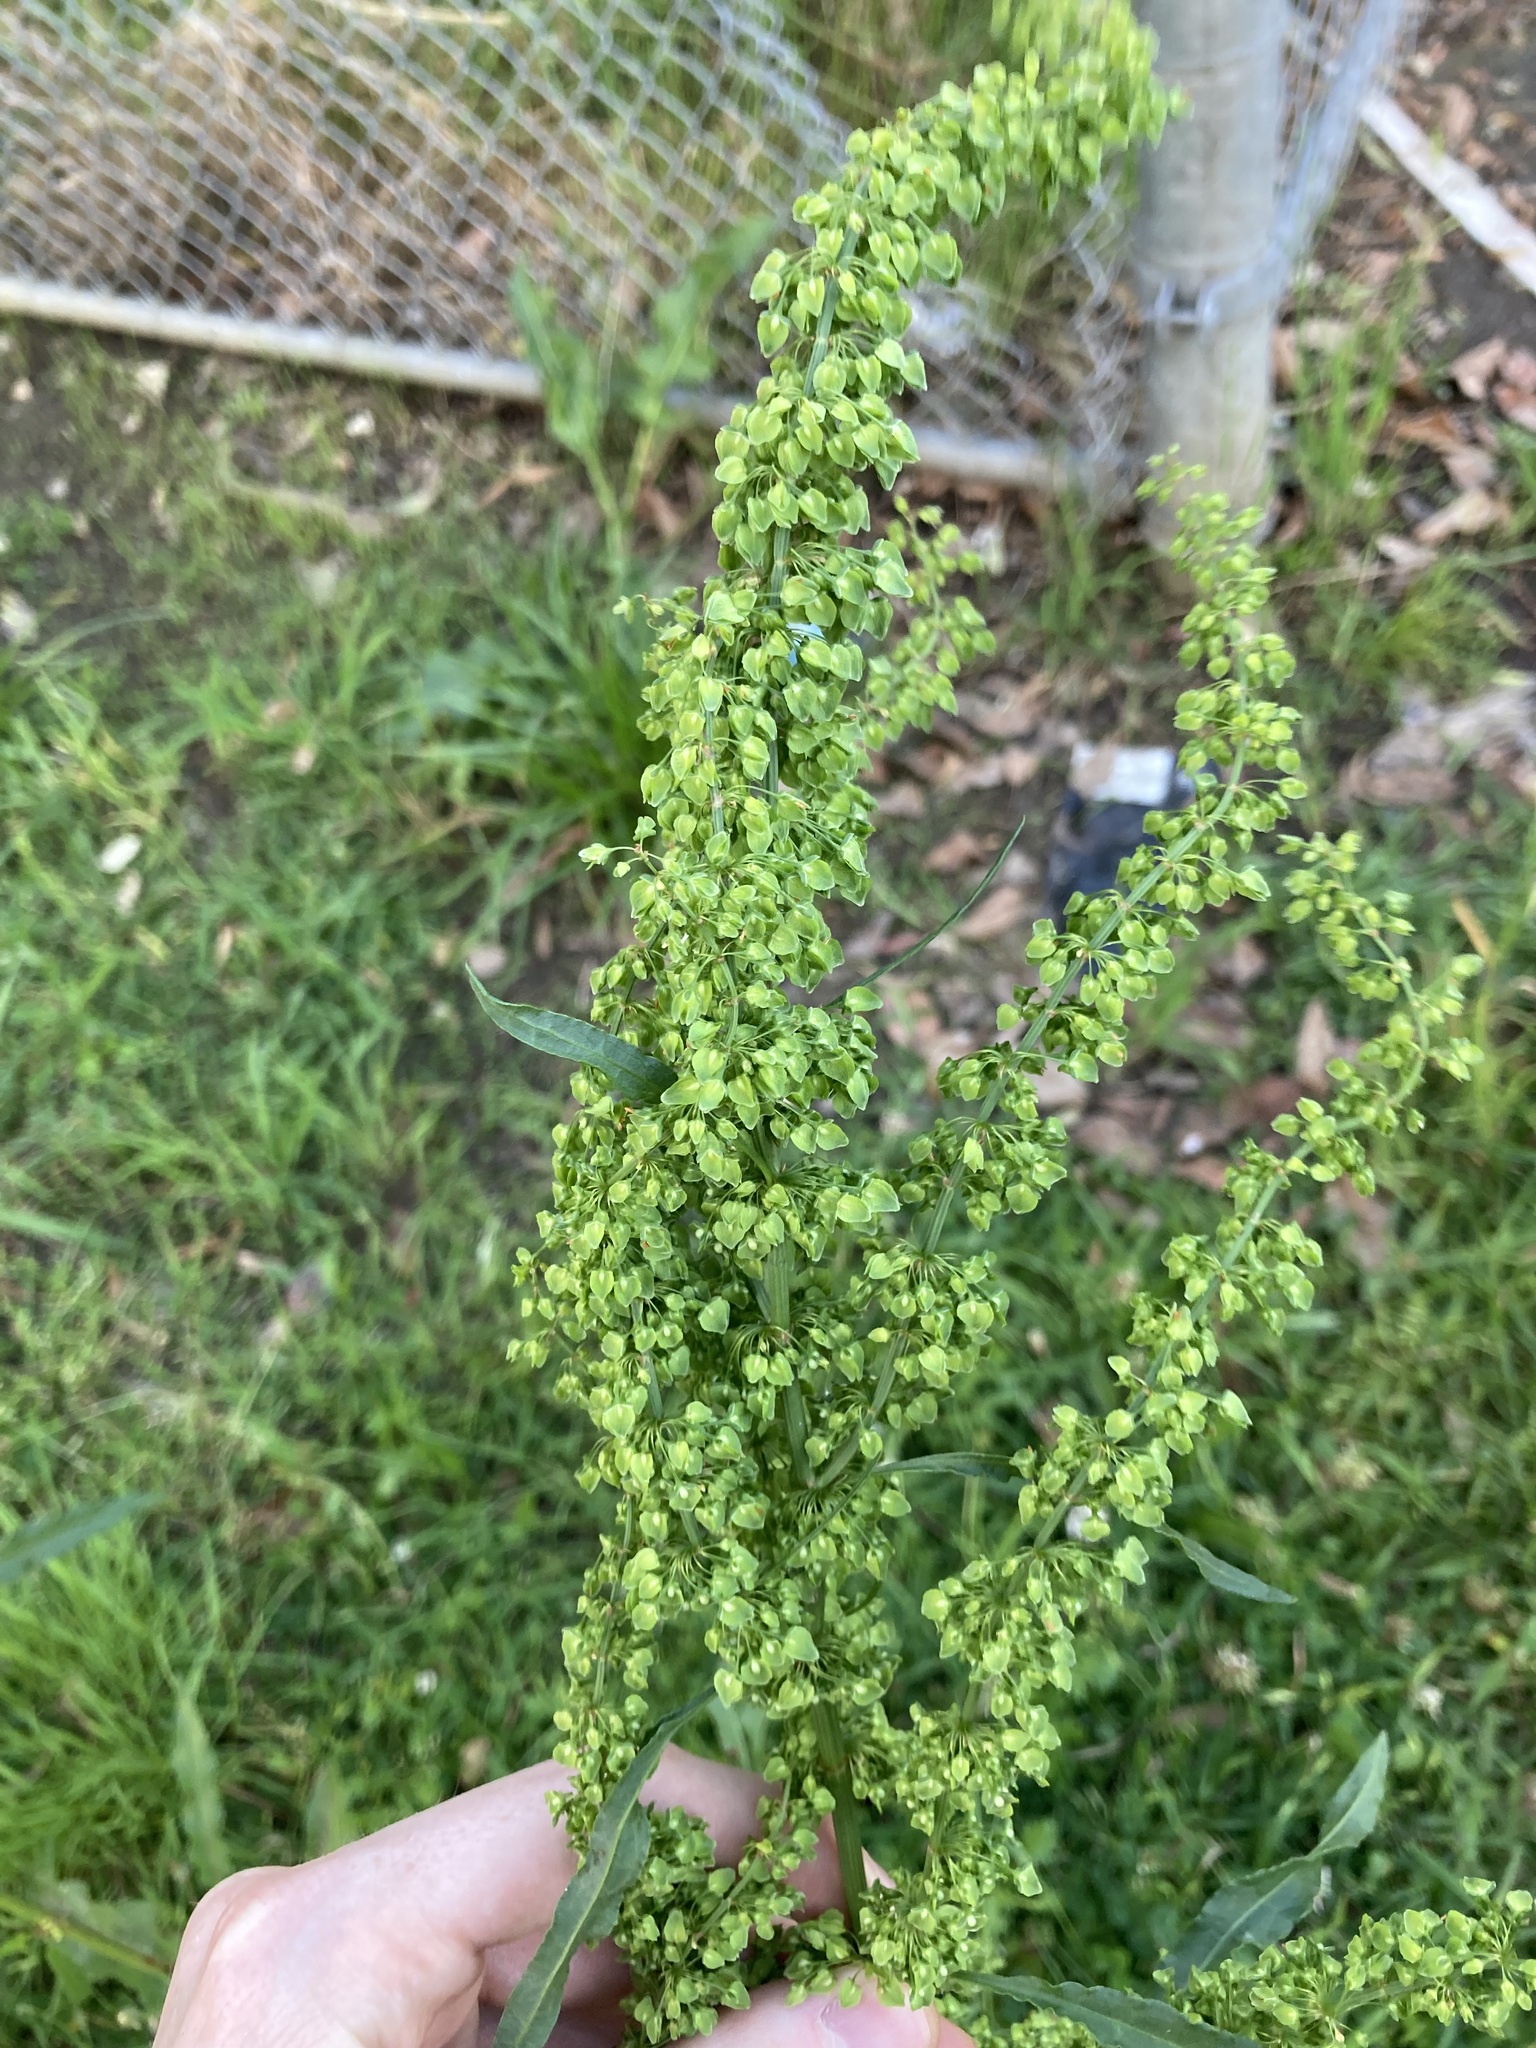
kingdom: Plantae
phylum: Tracheophyta
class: Magnoliopsida
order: Caryophyllales
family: Polygonaceae
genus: Rumex
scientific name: Rumex crispus
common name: Curled dock
